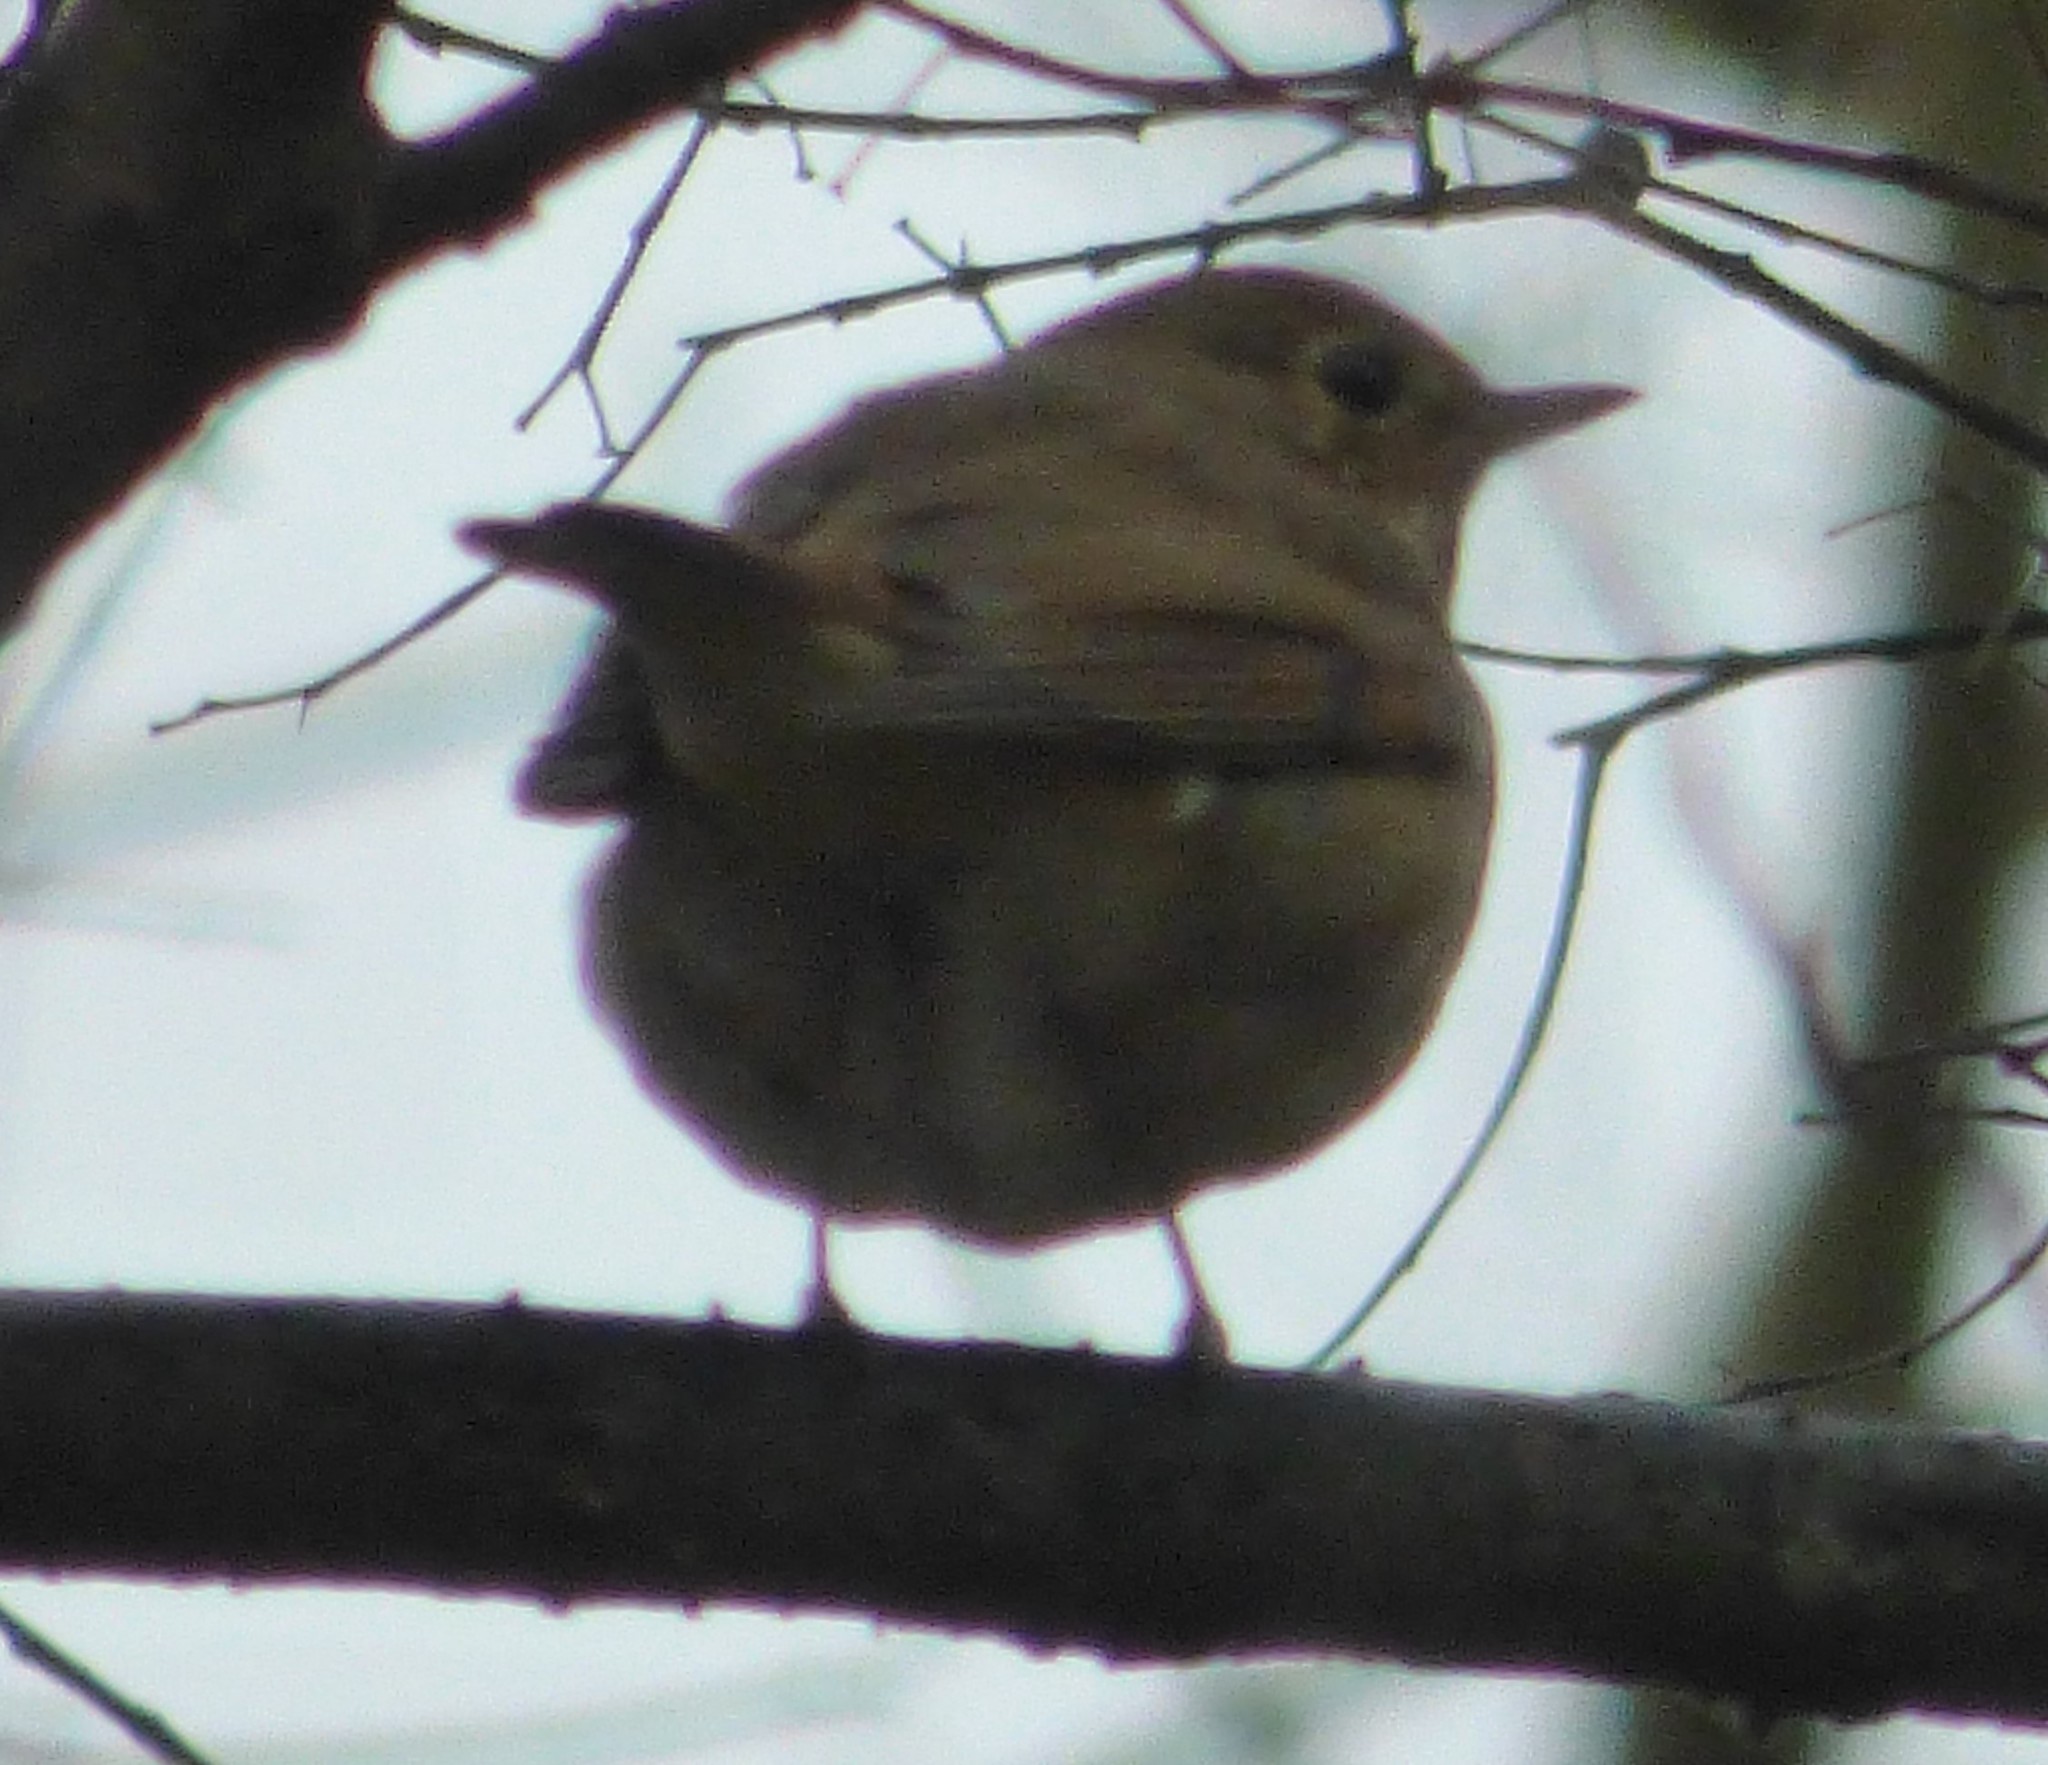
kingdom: Animalia
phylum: Chordata
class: Aves
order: Passeriformes
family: Turdidae
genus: Catharus
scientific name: Catharus guttatus
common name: Hermit thrush
